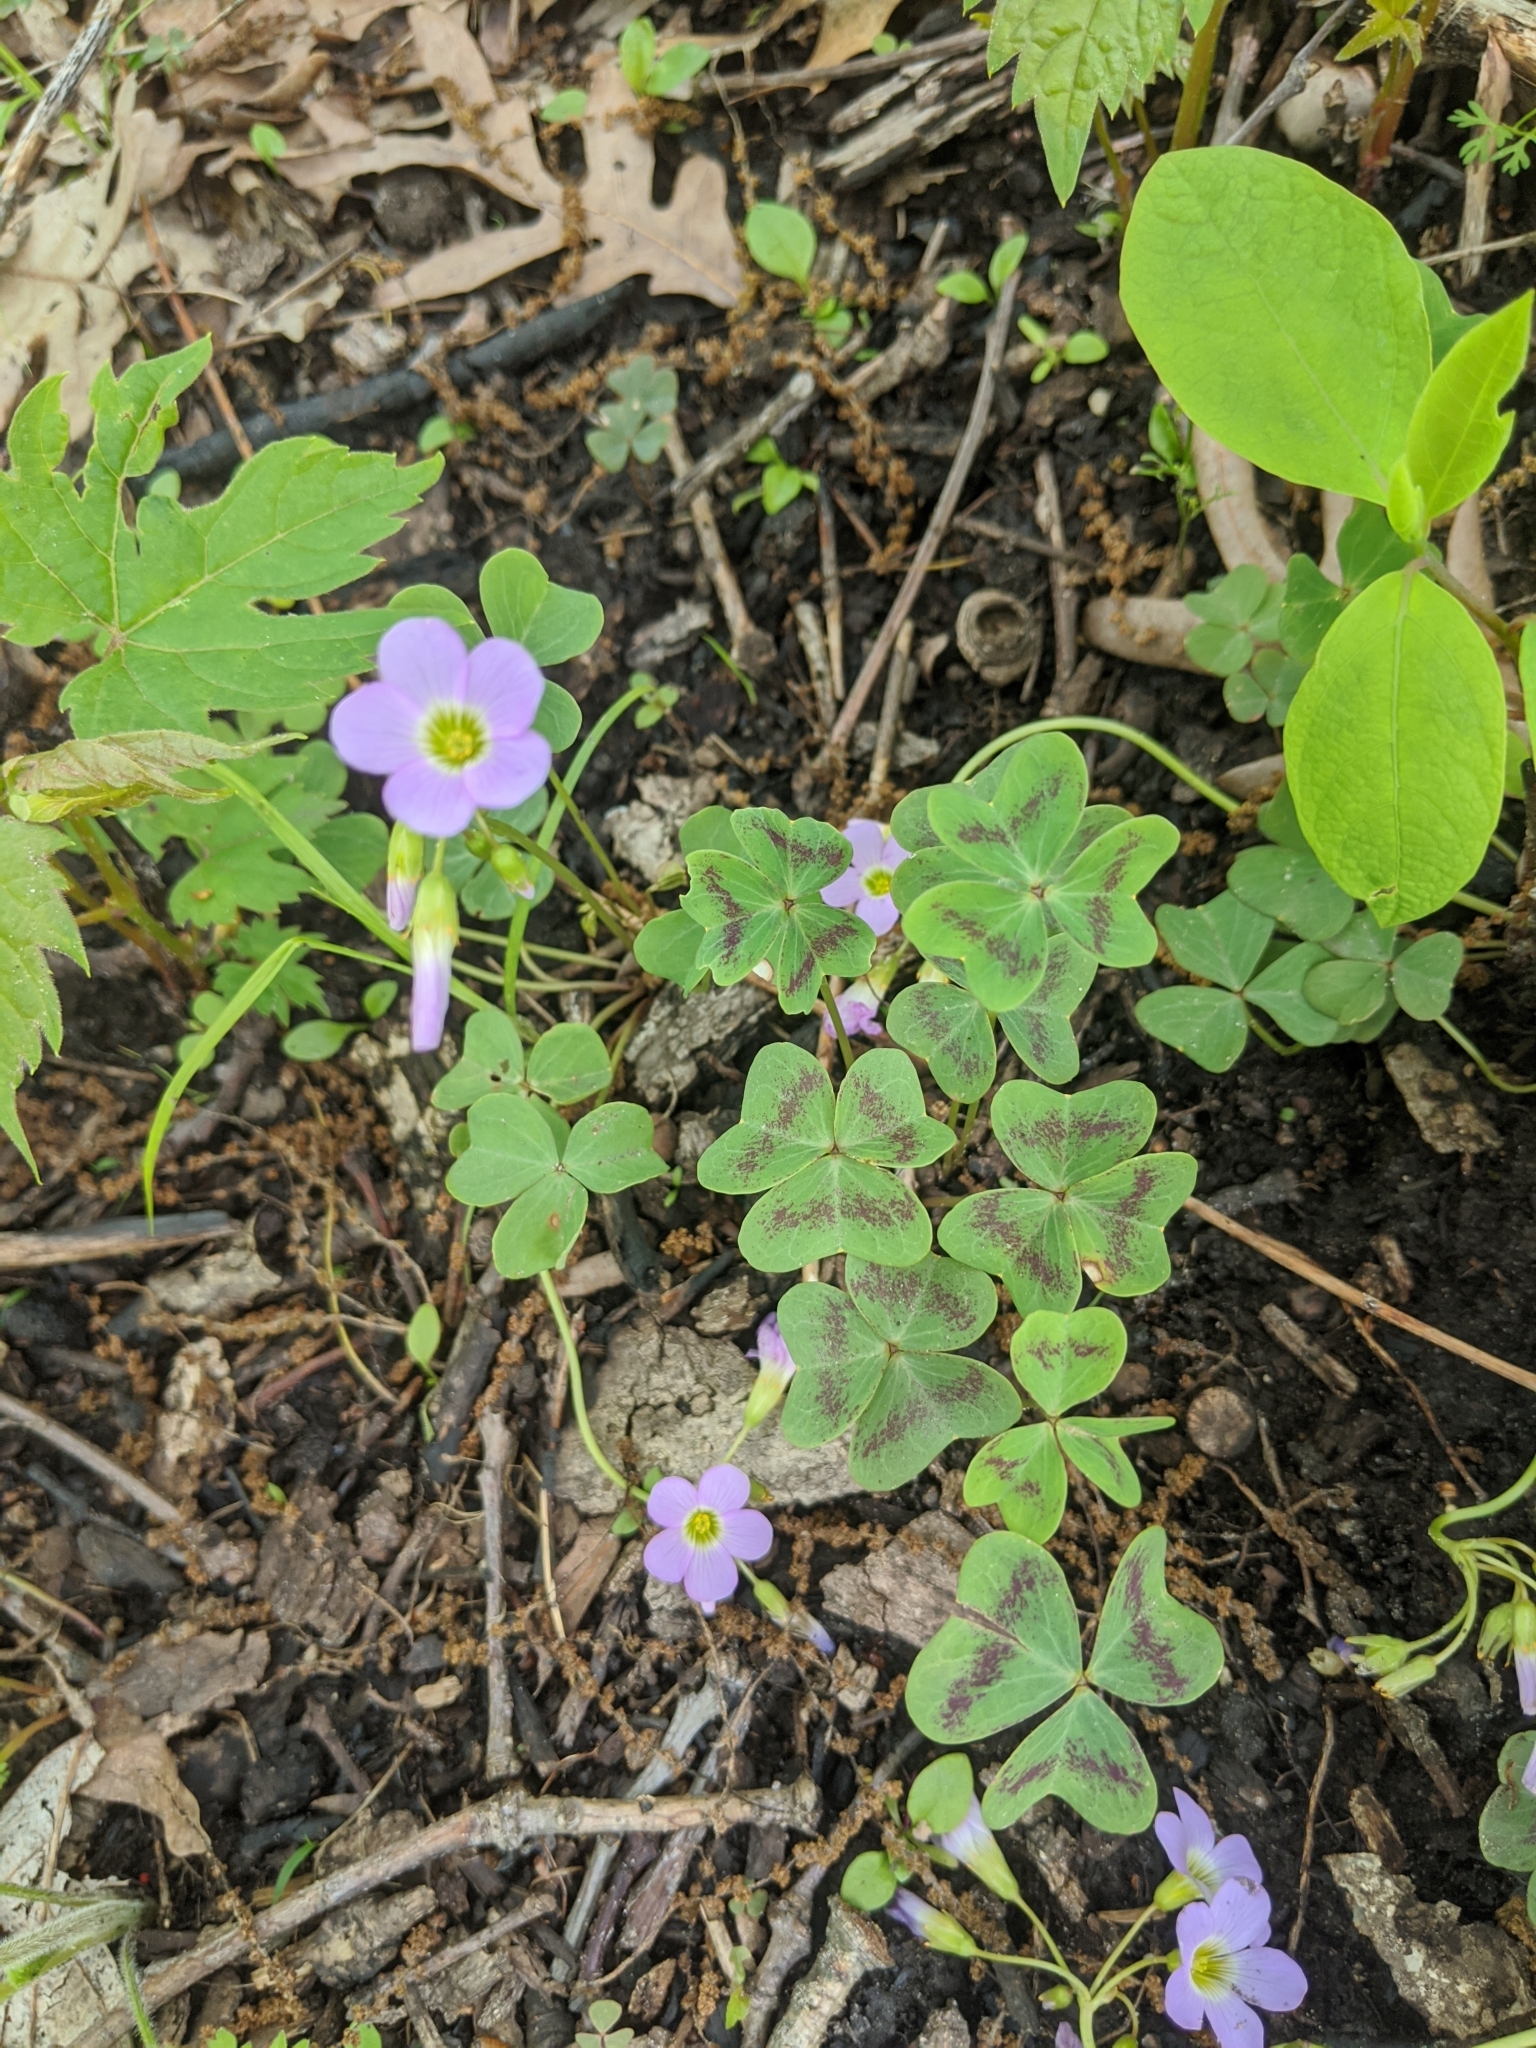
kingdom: Plantae
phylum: Tracheophyta
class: Magnoliopsida
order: Oxalidales
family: Oxalidaceae
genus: Oxalis
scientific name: Oxalis violacea
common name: Violet wood-sorrel
